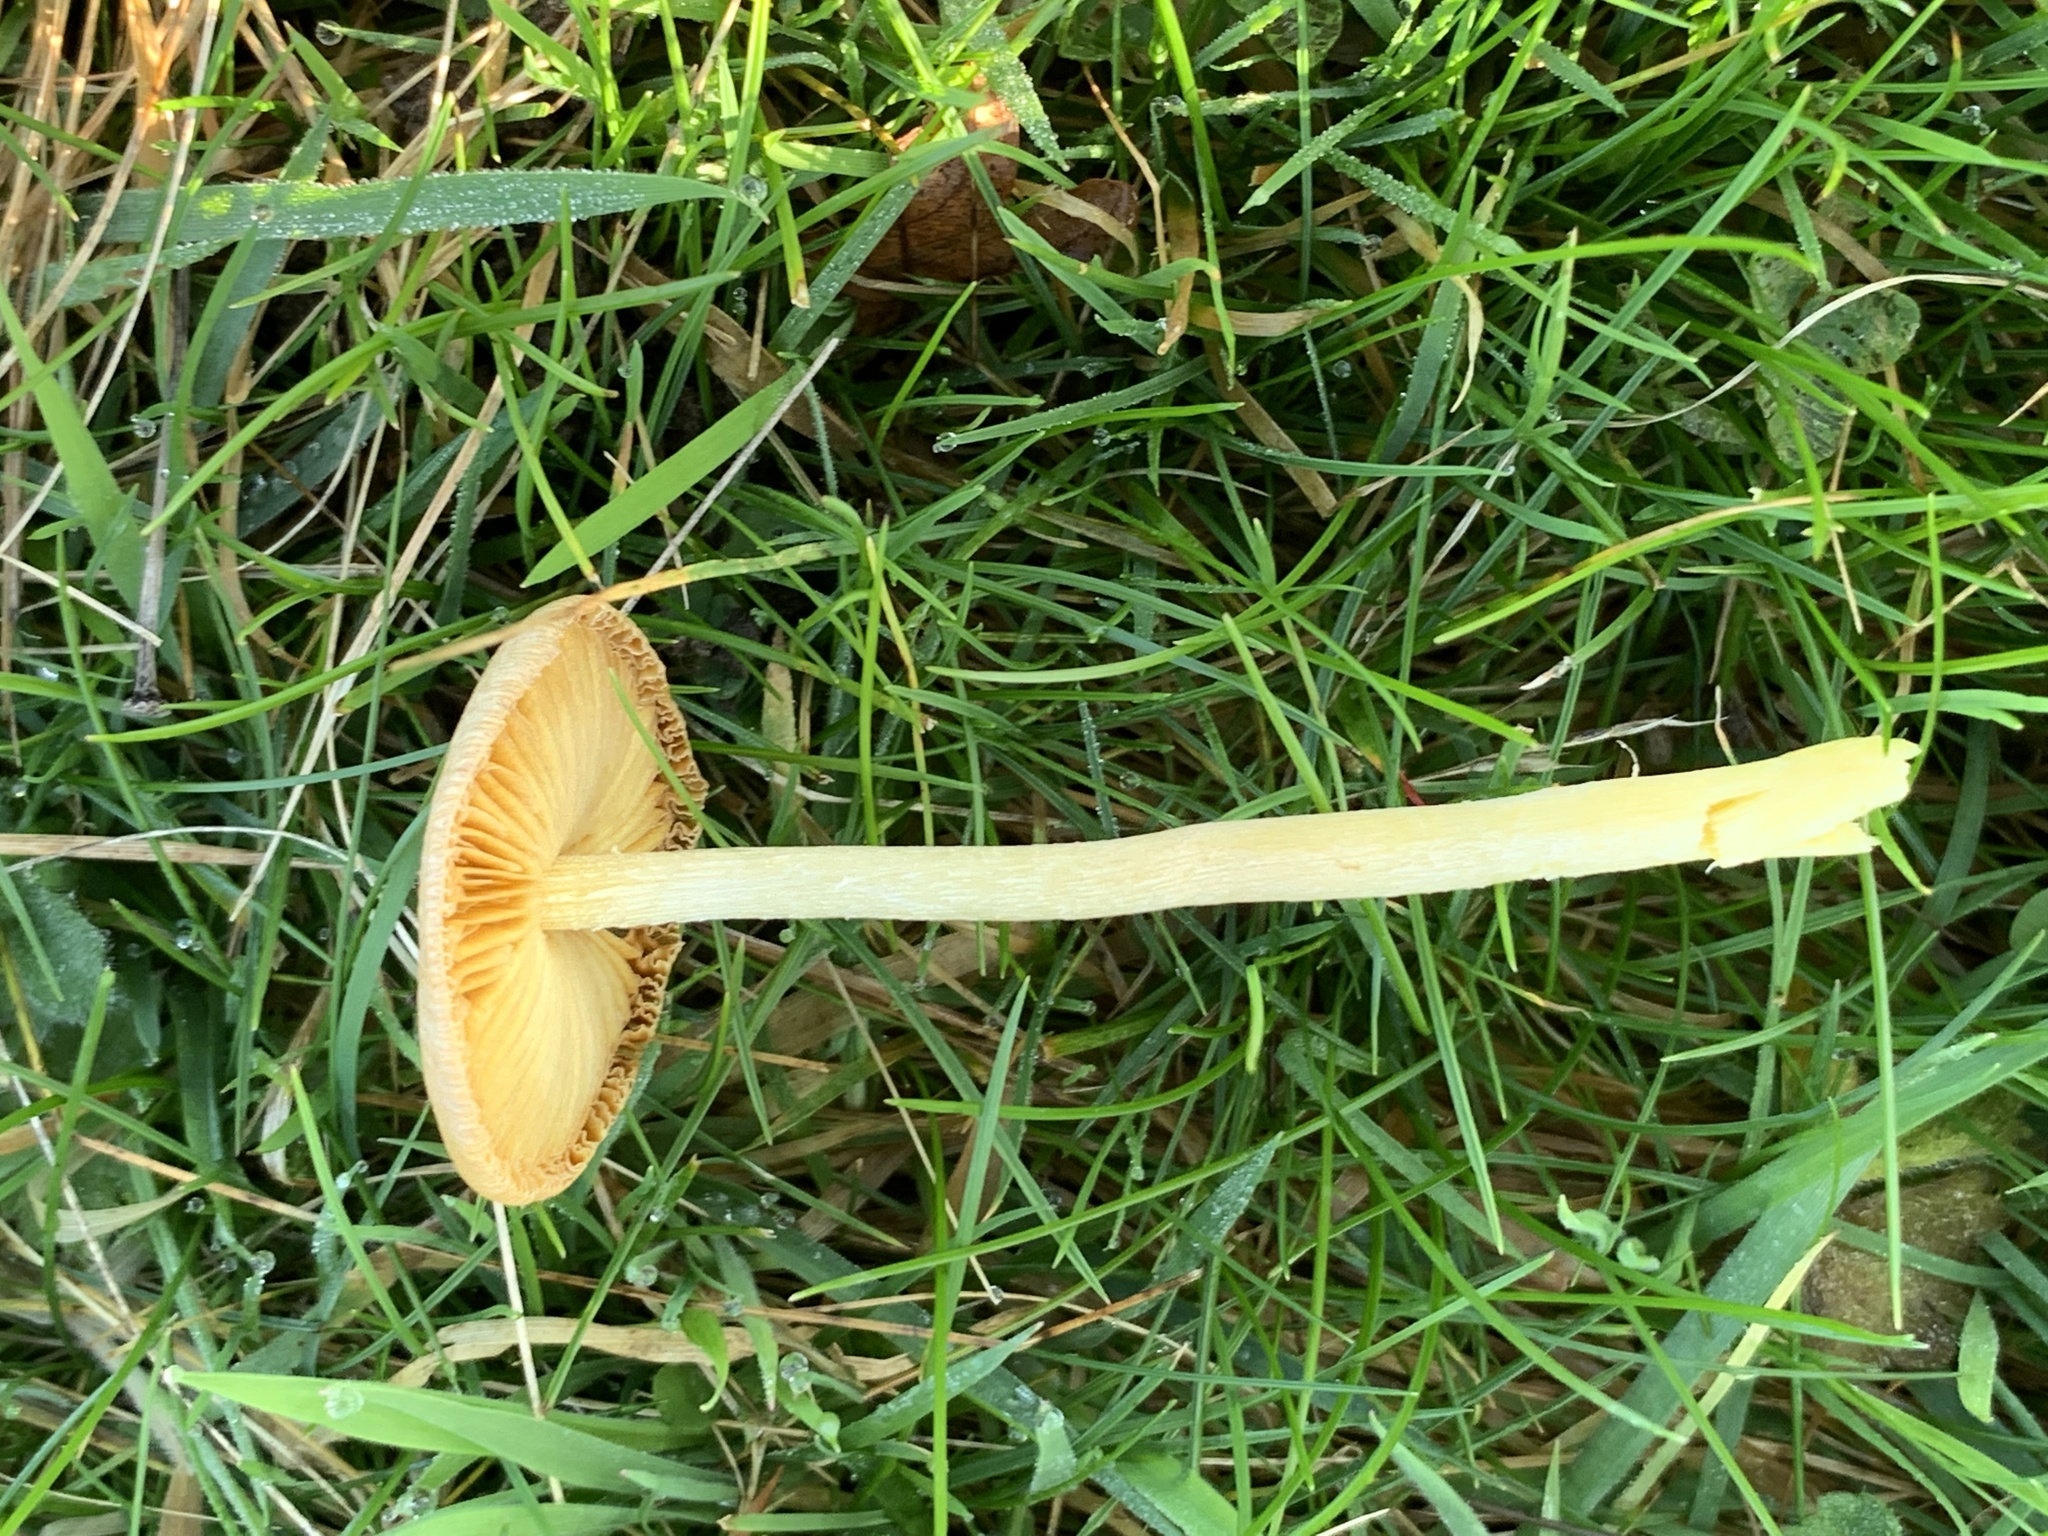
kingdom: Fungi
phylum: Basidiomycota
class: Agaricomycetes
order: Agaricales
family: Bolbitiaceae
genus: Bolbitius
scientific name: Bolbitius titubans
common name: Yellow fieldcap
